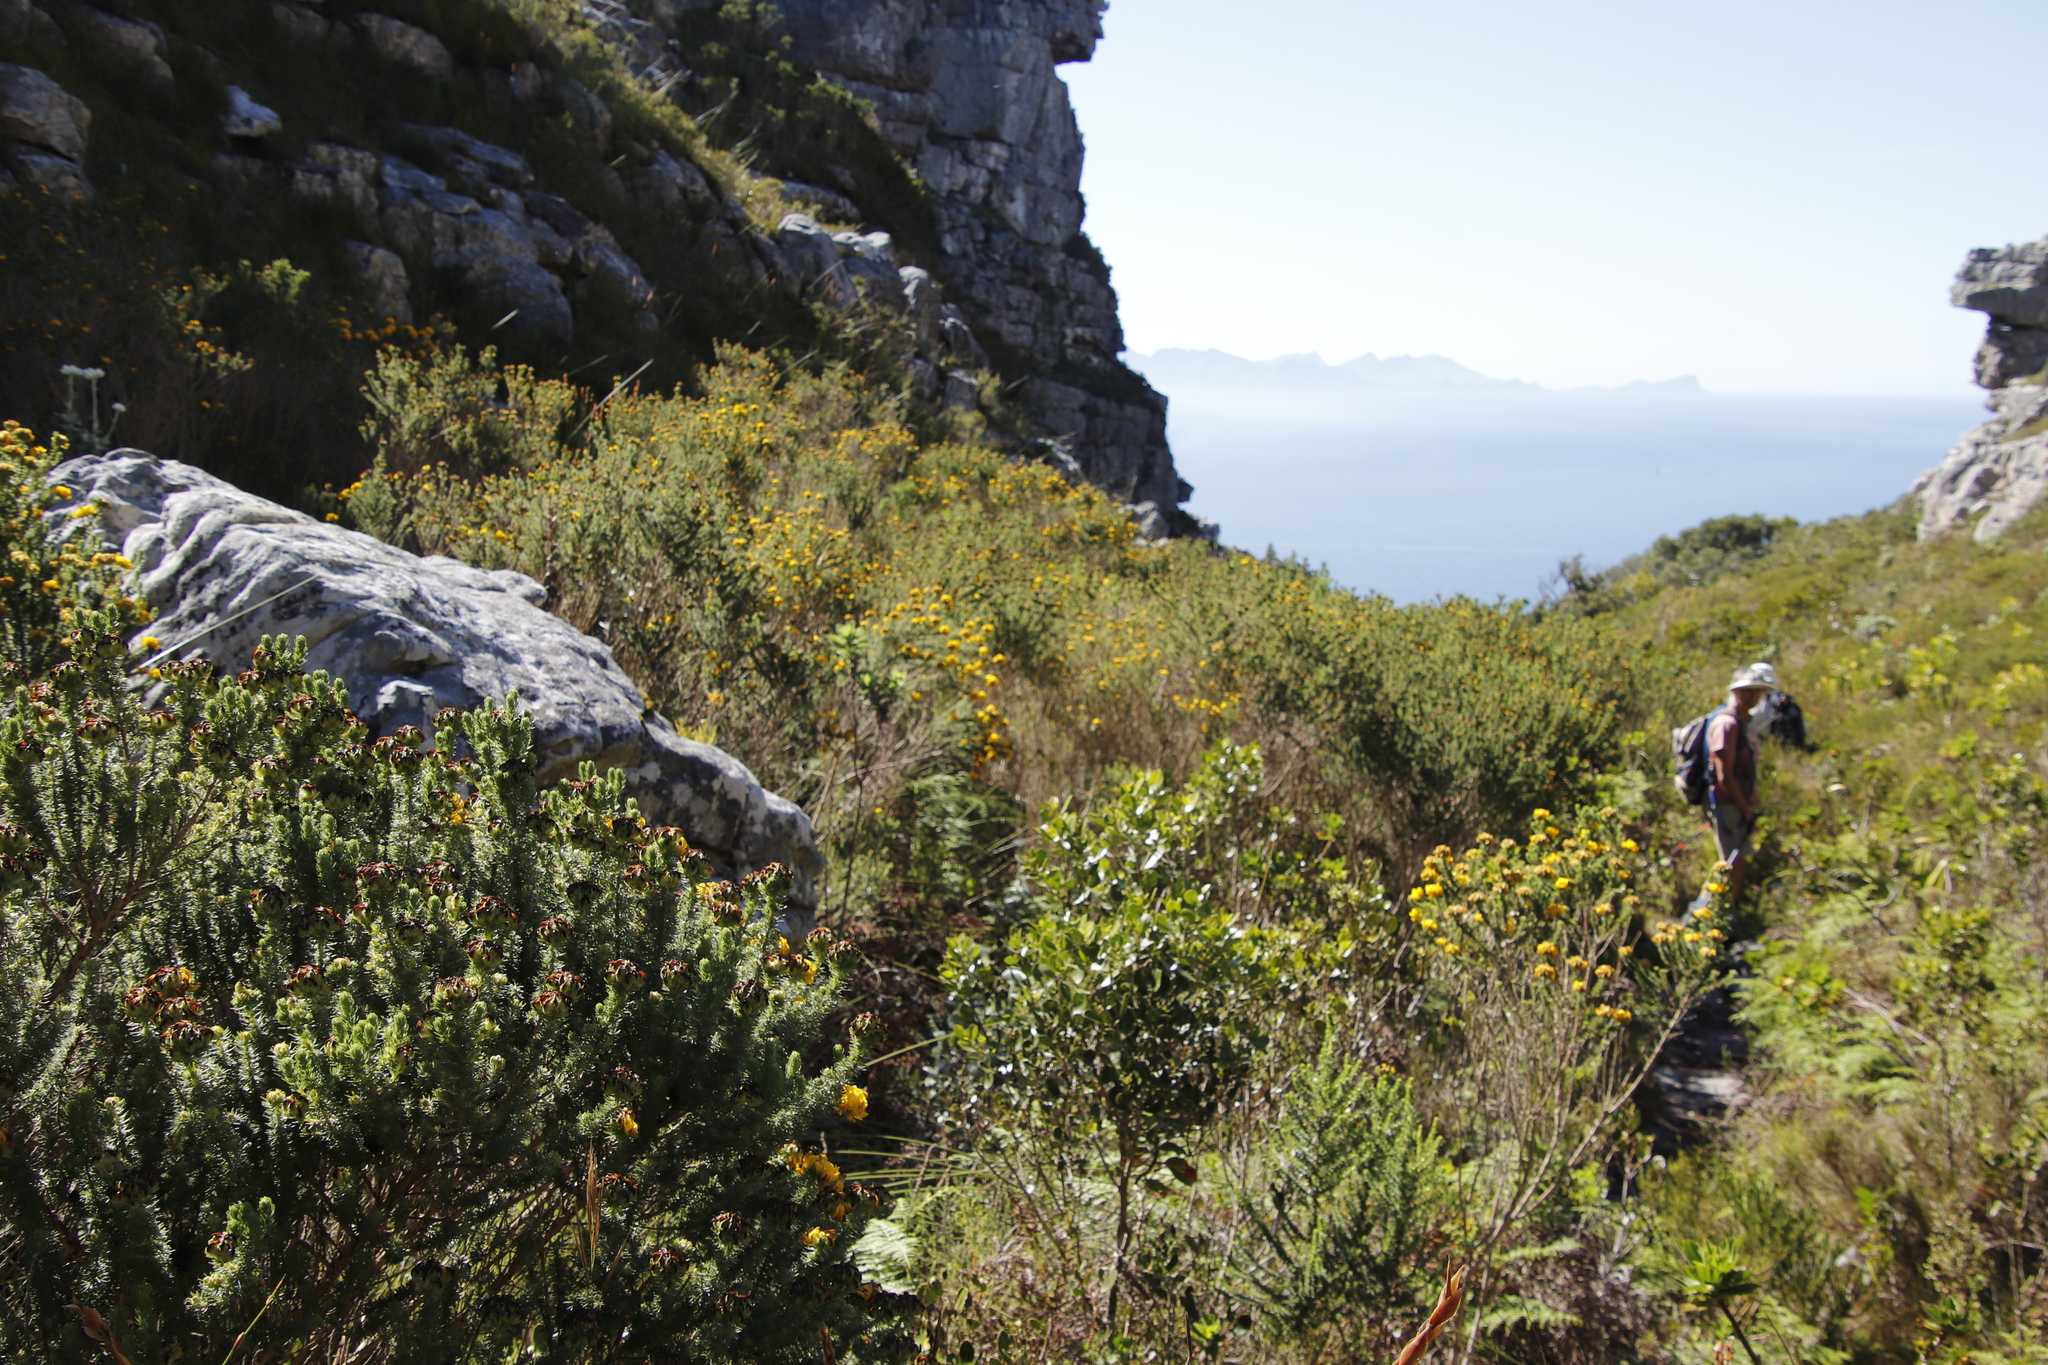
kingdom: Plantae
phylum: Tracheophyta
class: Magnoliopsida
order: Fabales
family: Fabaceae
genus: Aspalathus
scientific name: Aspalathus capitata
